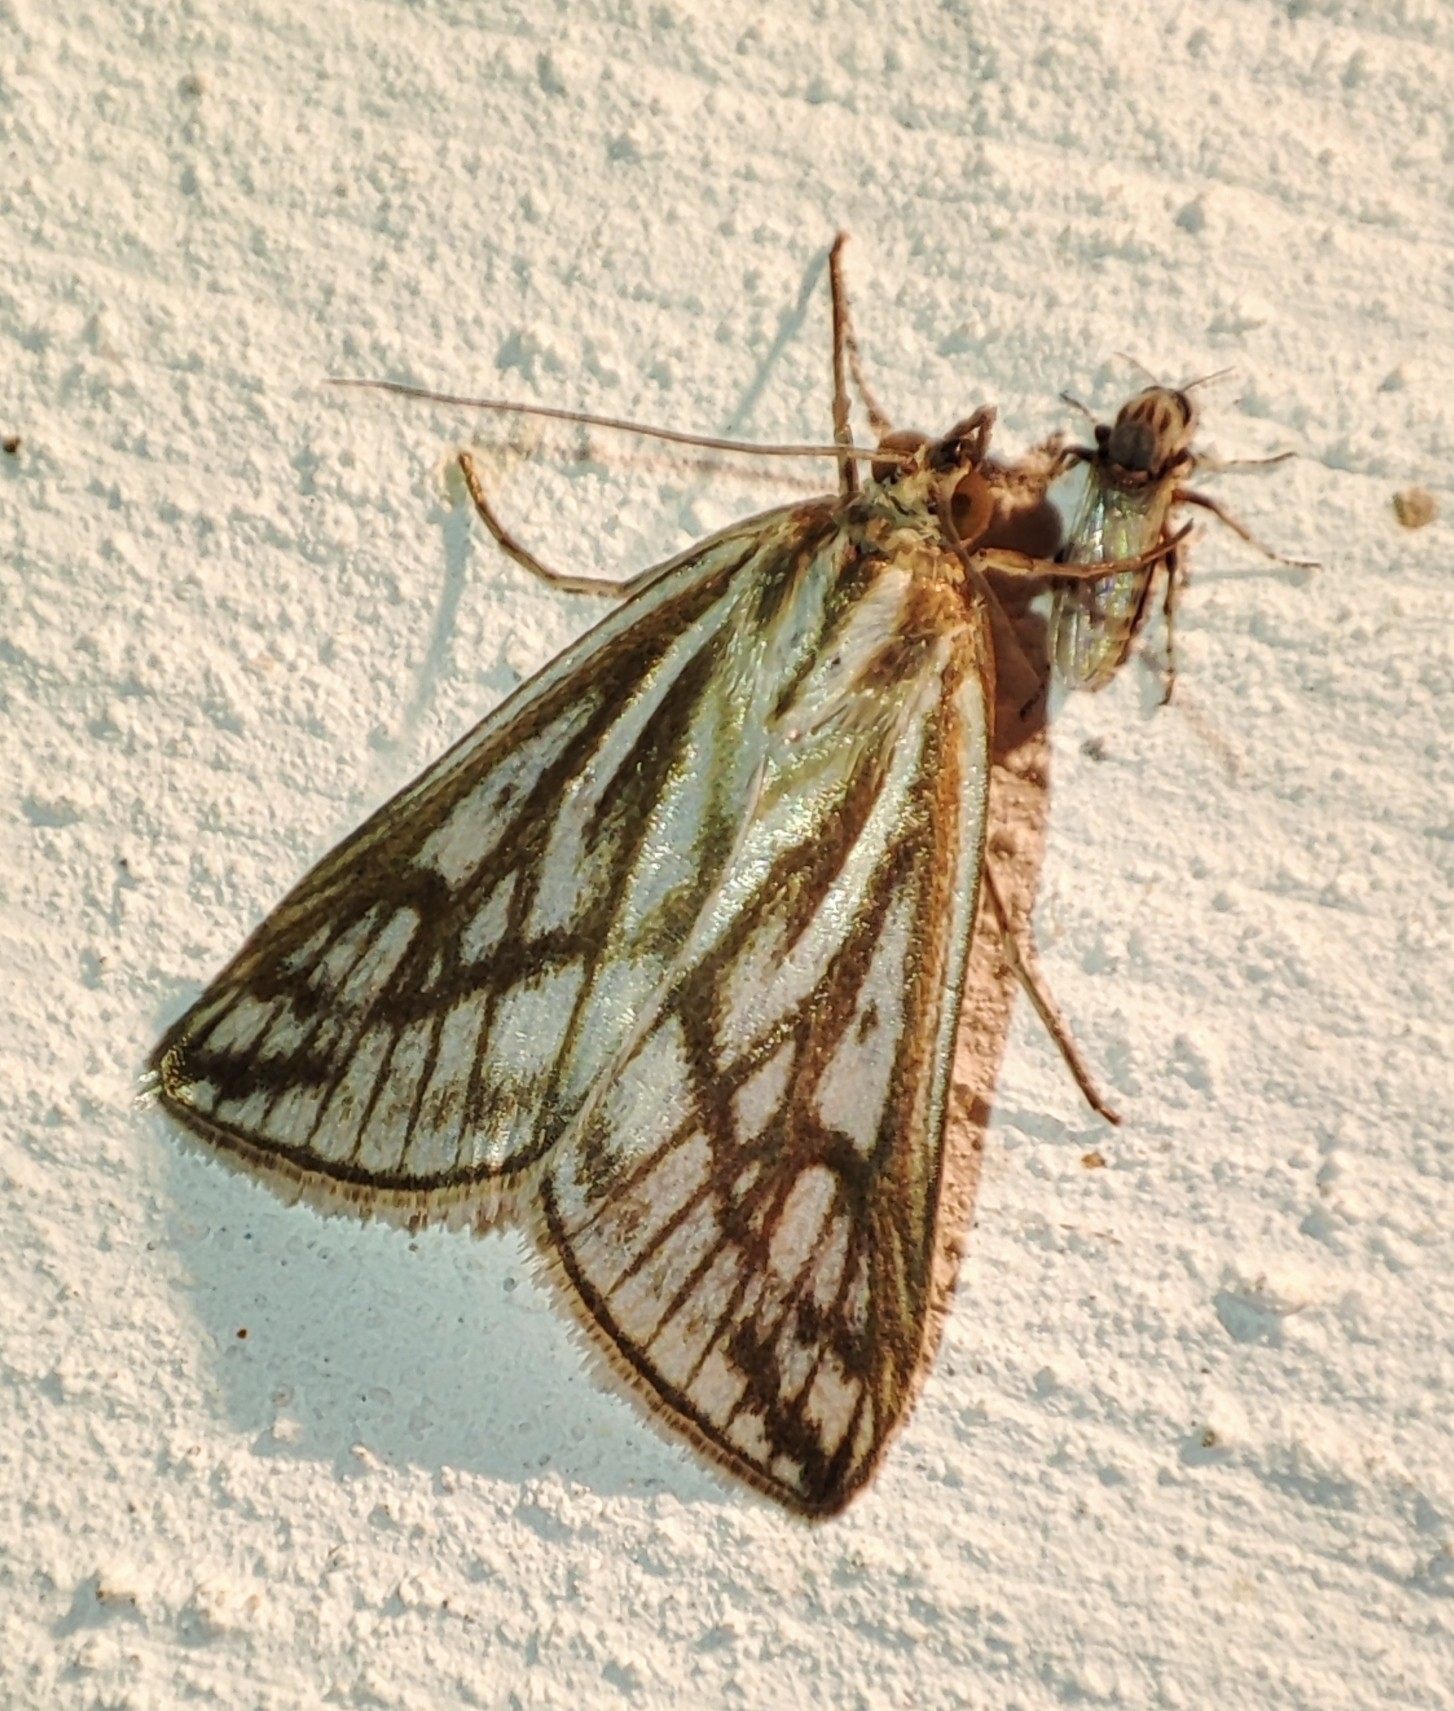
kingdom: Animalia
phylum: Arthropoda
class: Insecta
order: Lepidoptera
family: Crambidae
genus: Loxostege
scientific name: Loxostege clathralis
